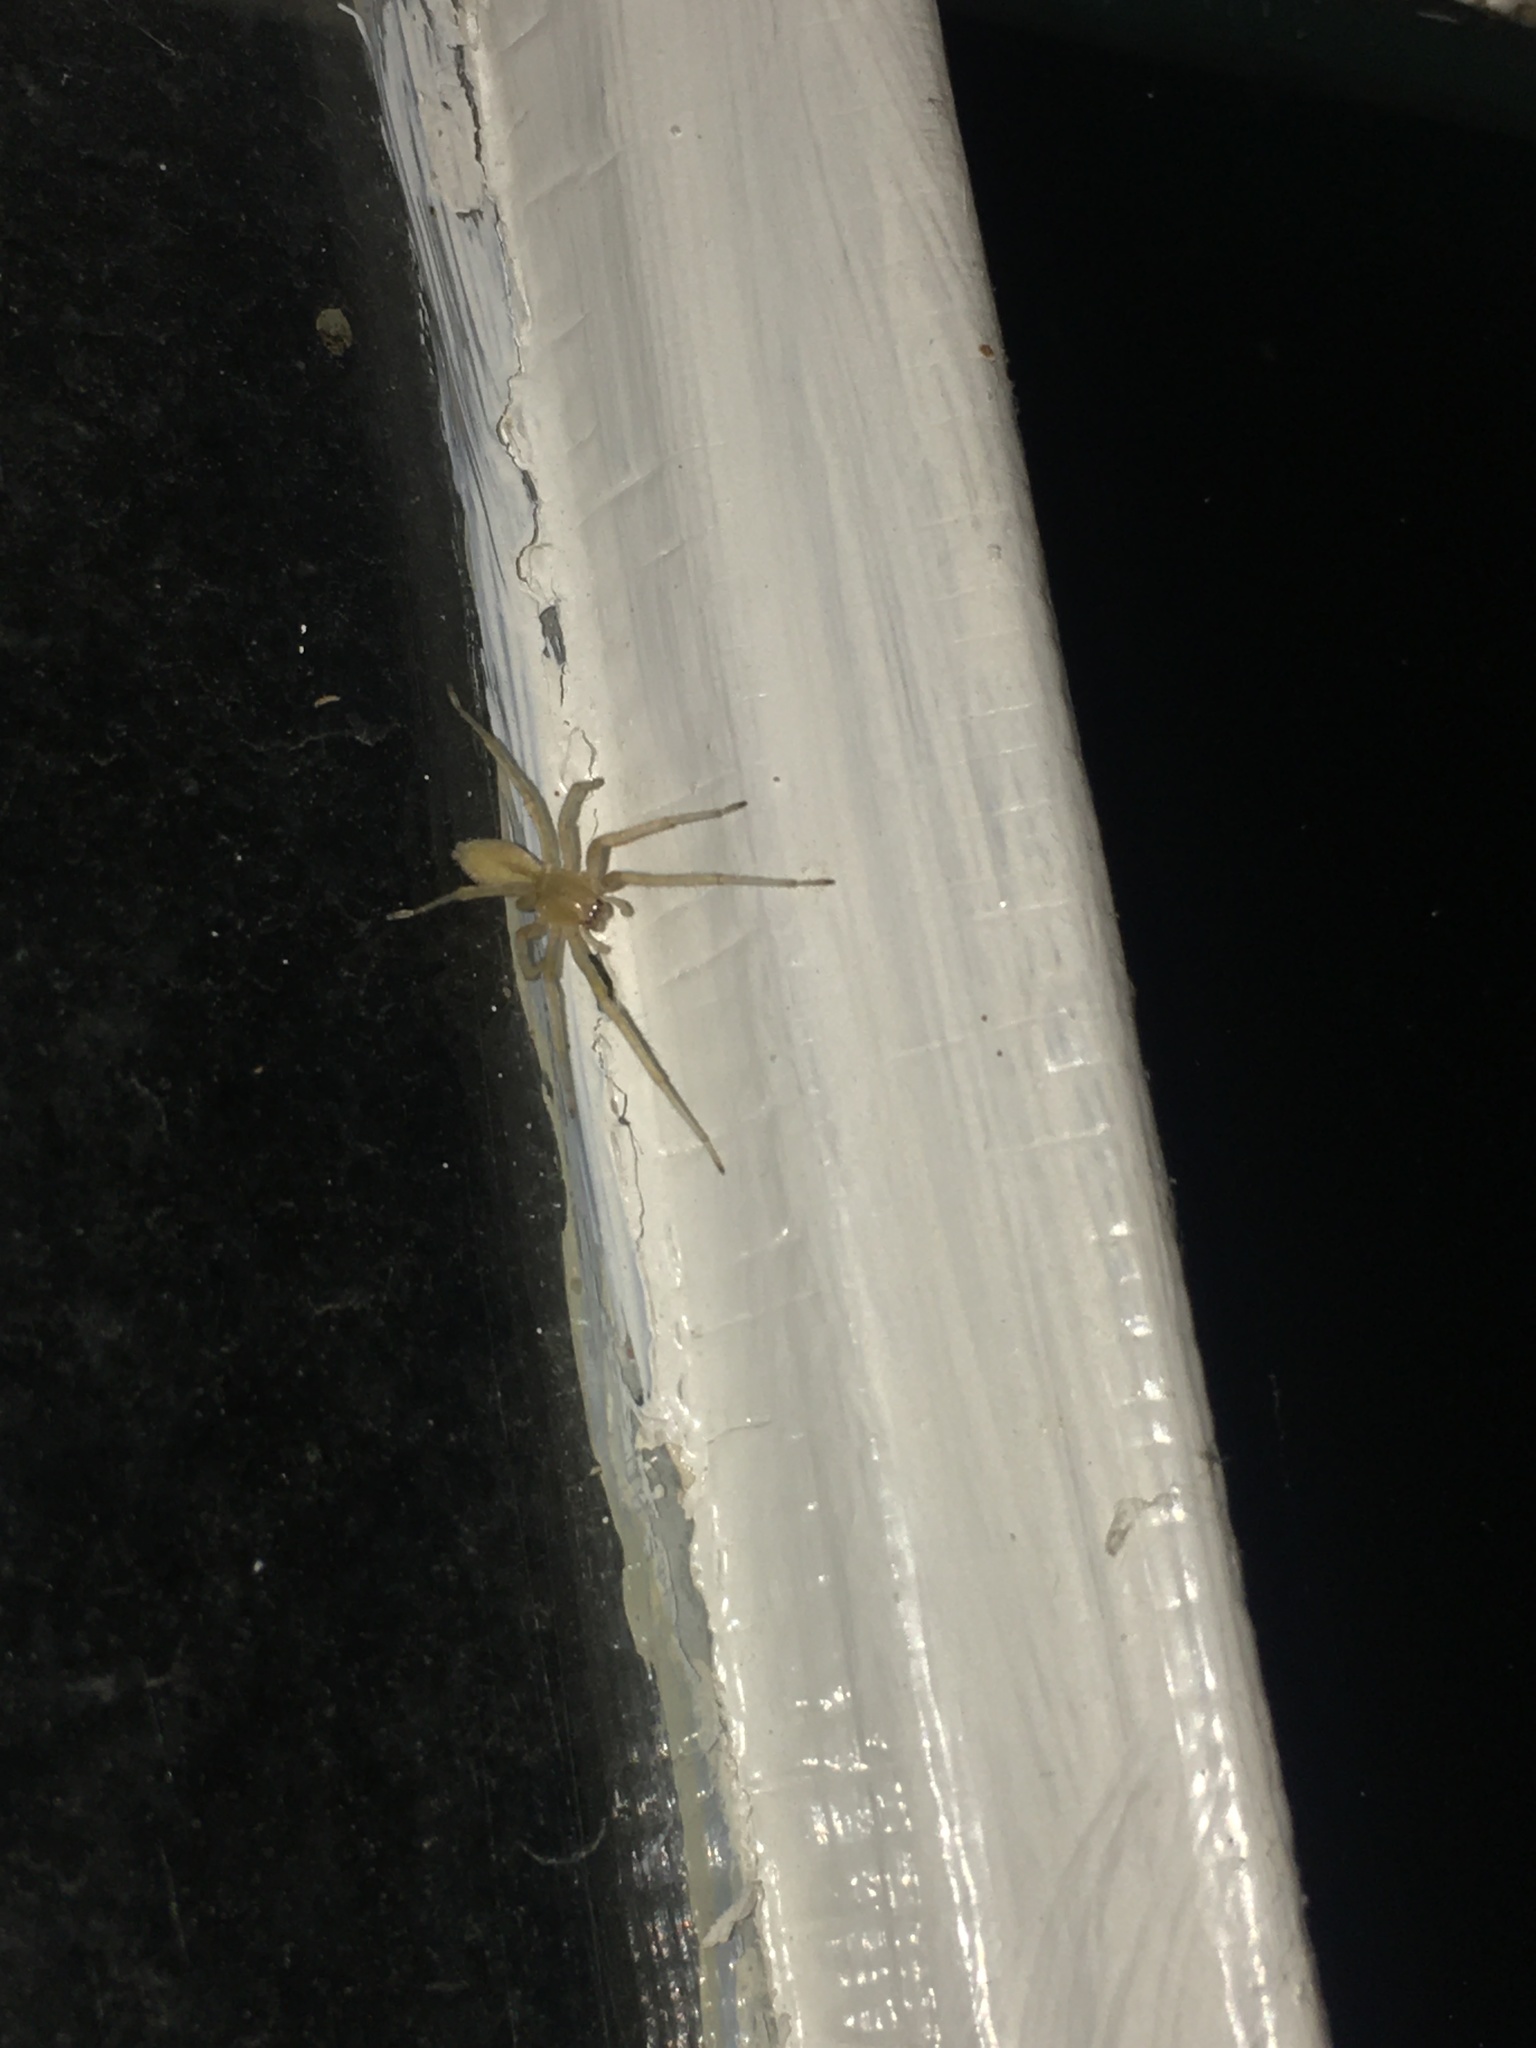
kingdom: Animalia
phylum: Arthropoda
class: Arachnida
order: Araneae
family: Cheiracanthiidae
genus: Cheiracanthium
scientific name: Cheiracanthium mildei
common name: Northern yellow sac spider
